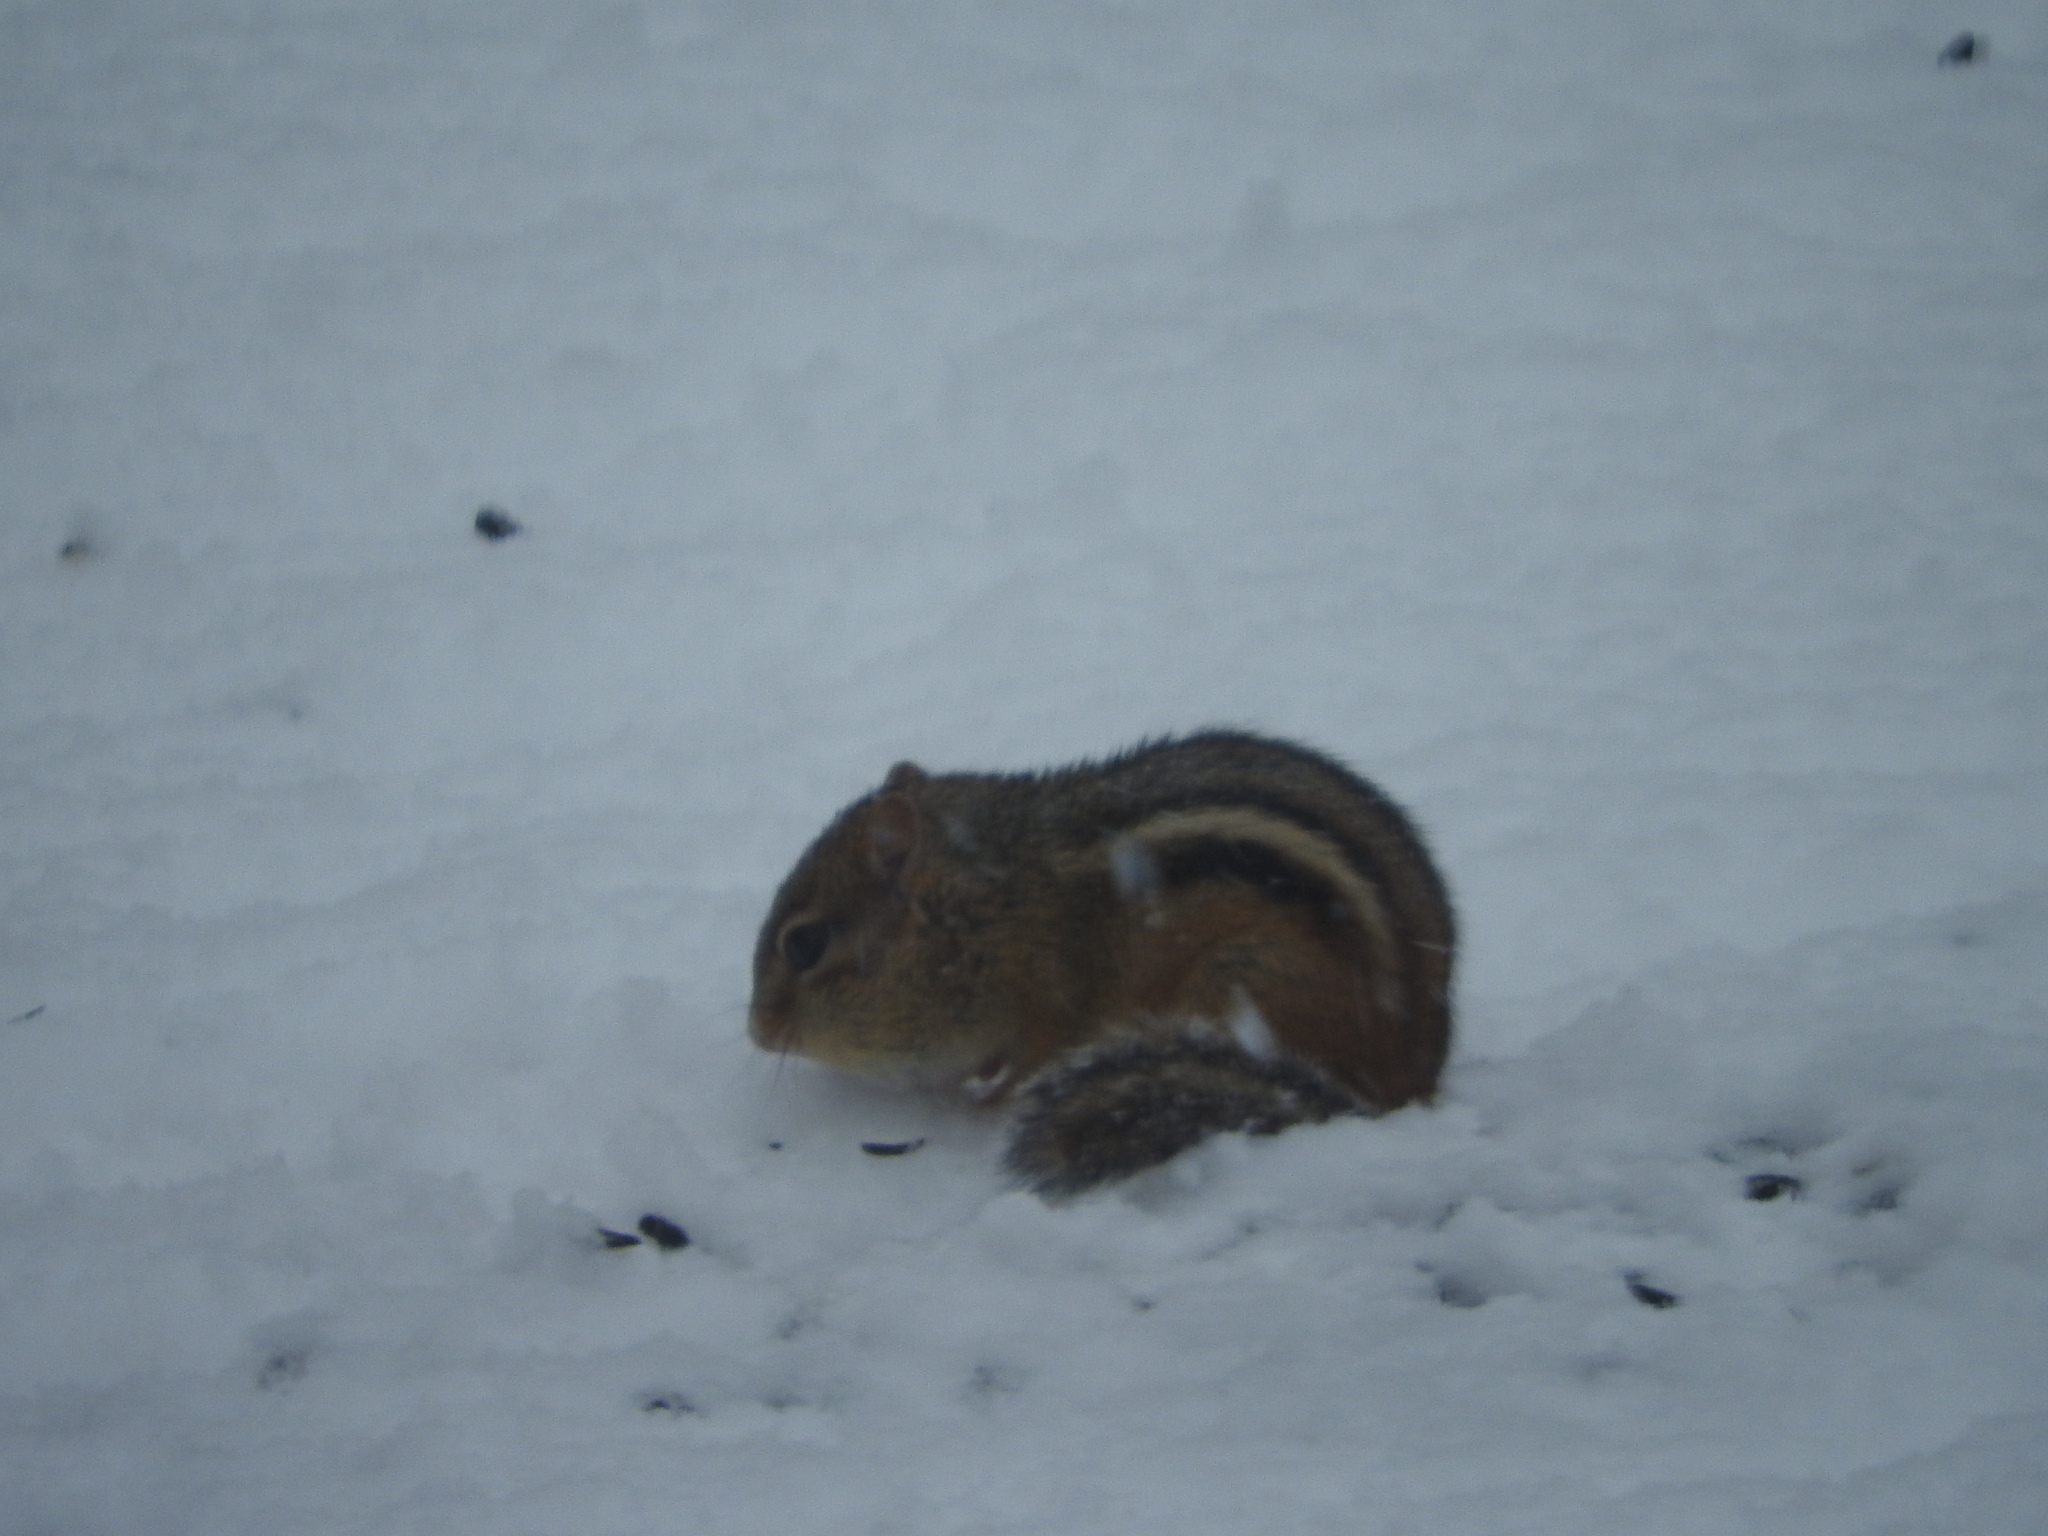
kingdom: Animalia
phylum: Chordata
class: Mammalia
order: Rodentia
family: Sciuridae
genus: Tamias
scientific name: Tamias striatus
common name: Eastern chipmunk
